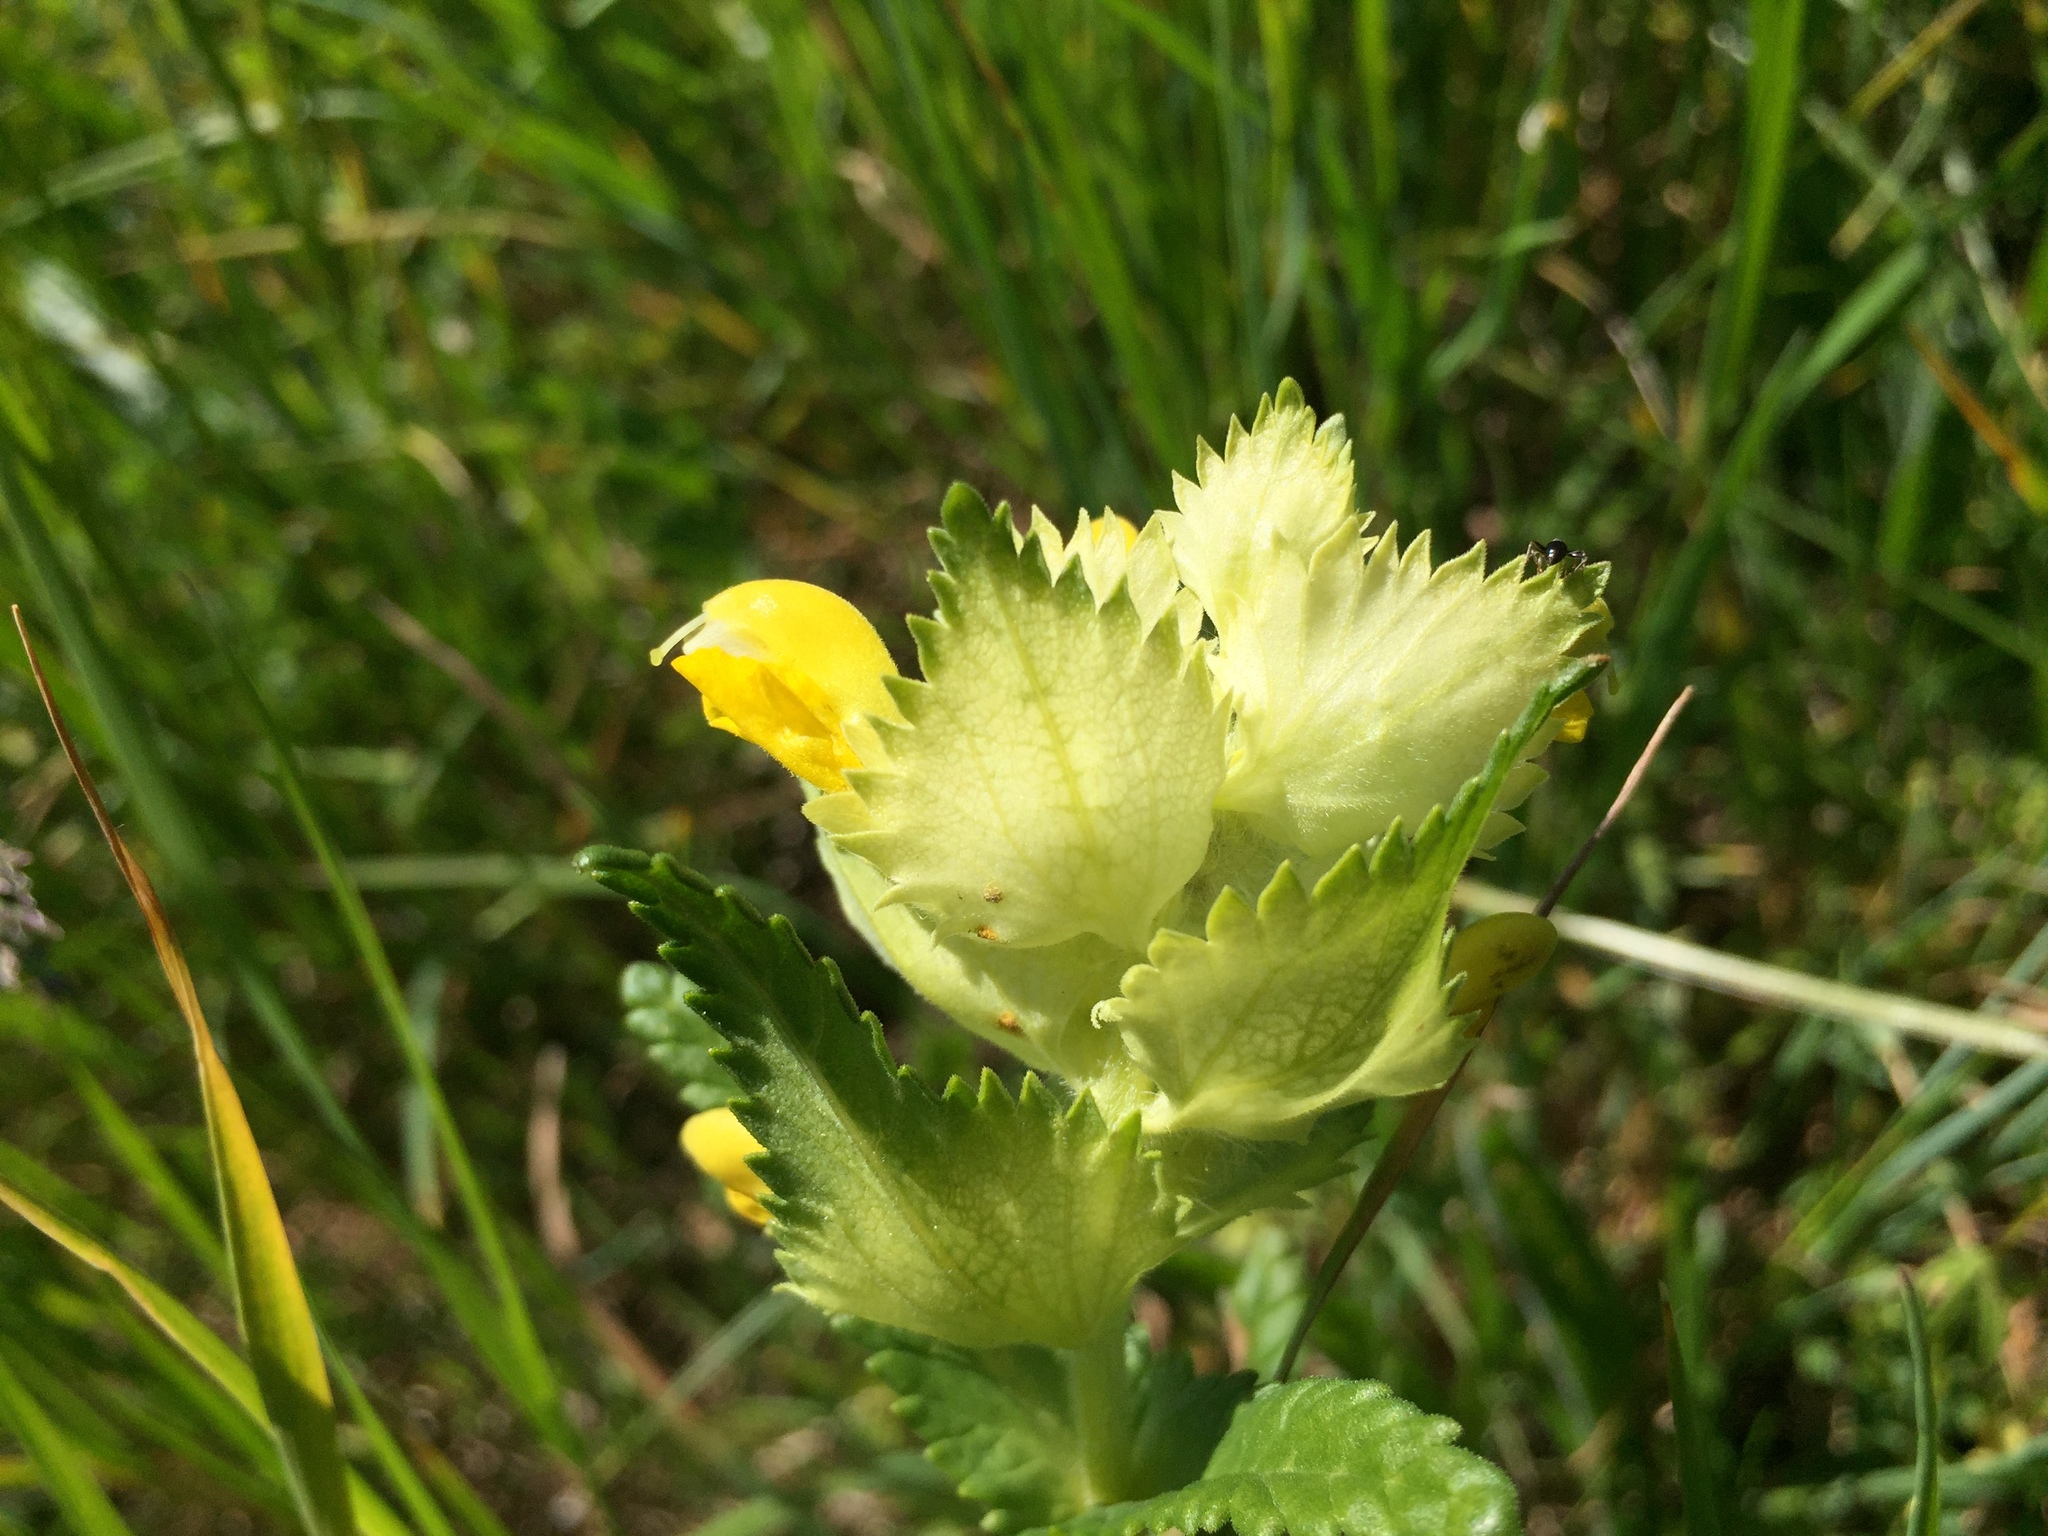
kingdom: Plantae
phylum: Tracheophyta
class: Magnoliopsida
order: Lamiales
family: Orobanchaceae
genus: Rhinanthus
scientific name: Rhinanthus alectorolophus
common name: Greater yellow-rattle
